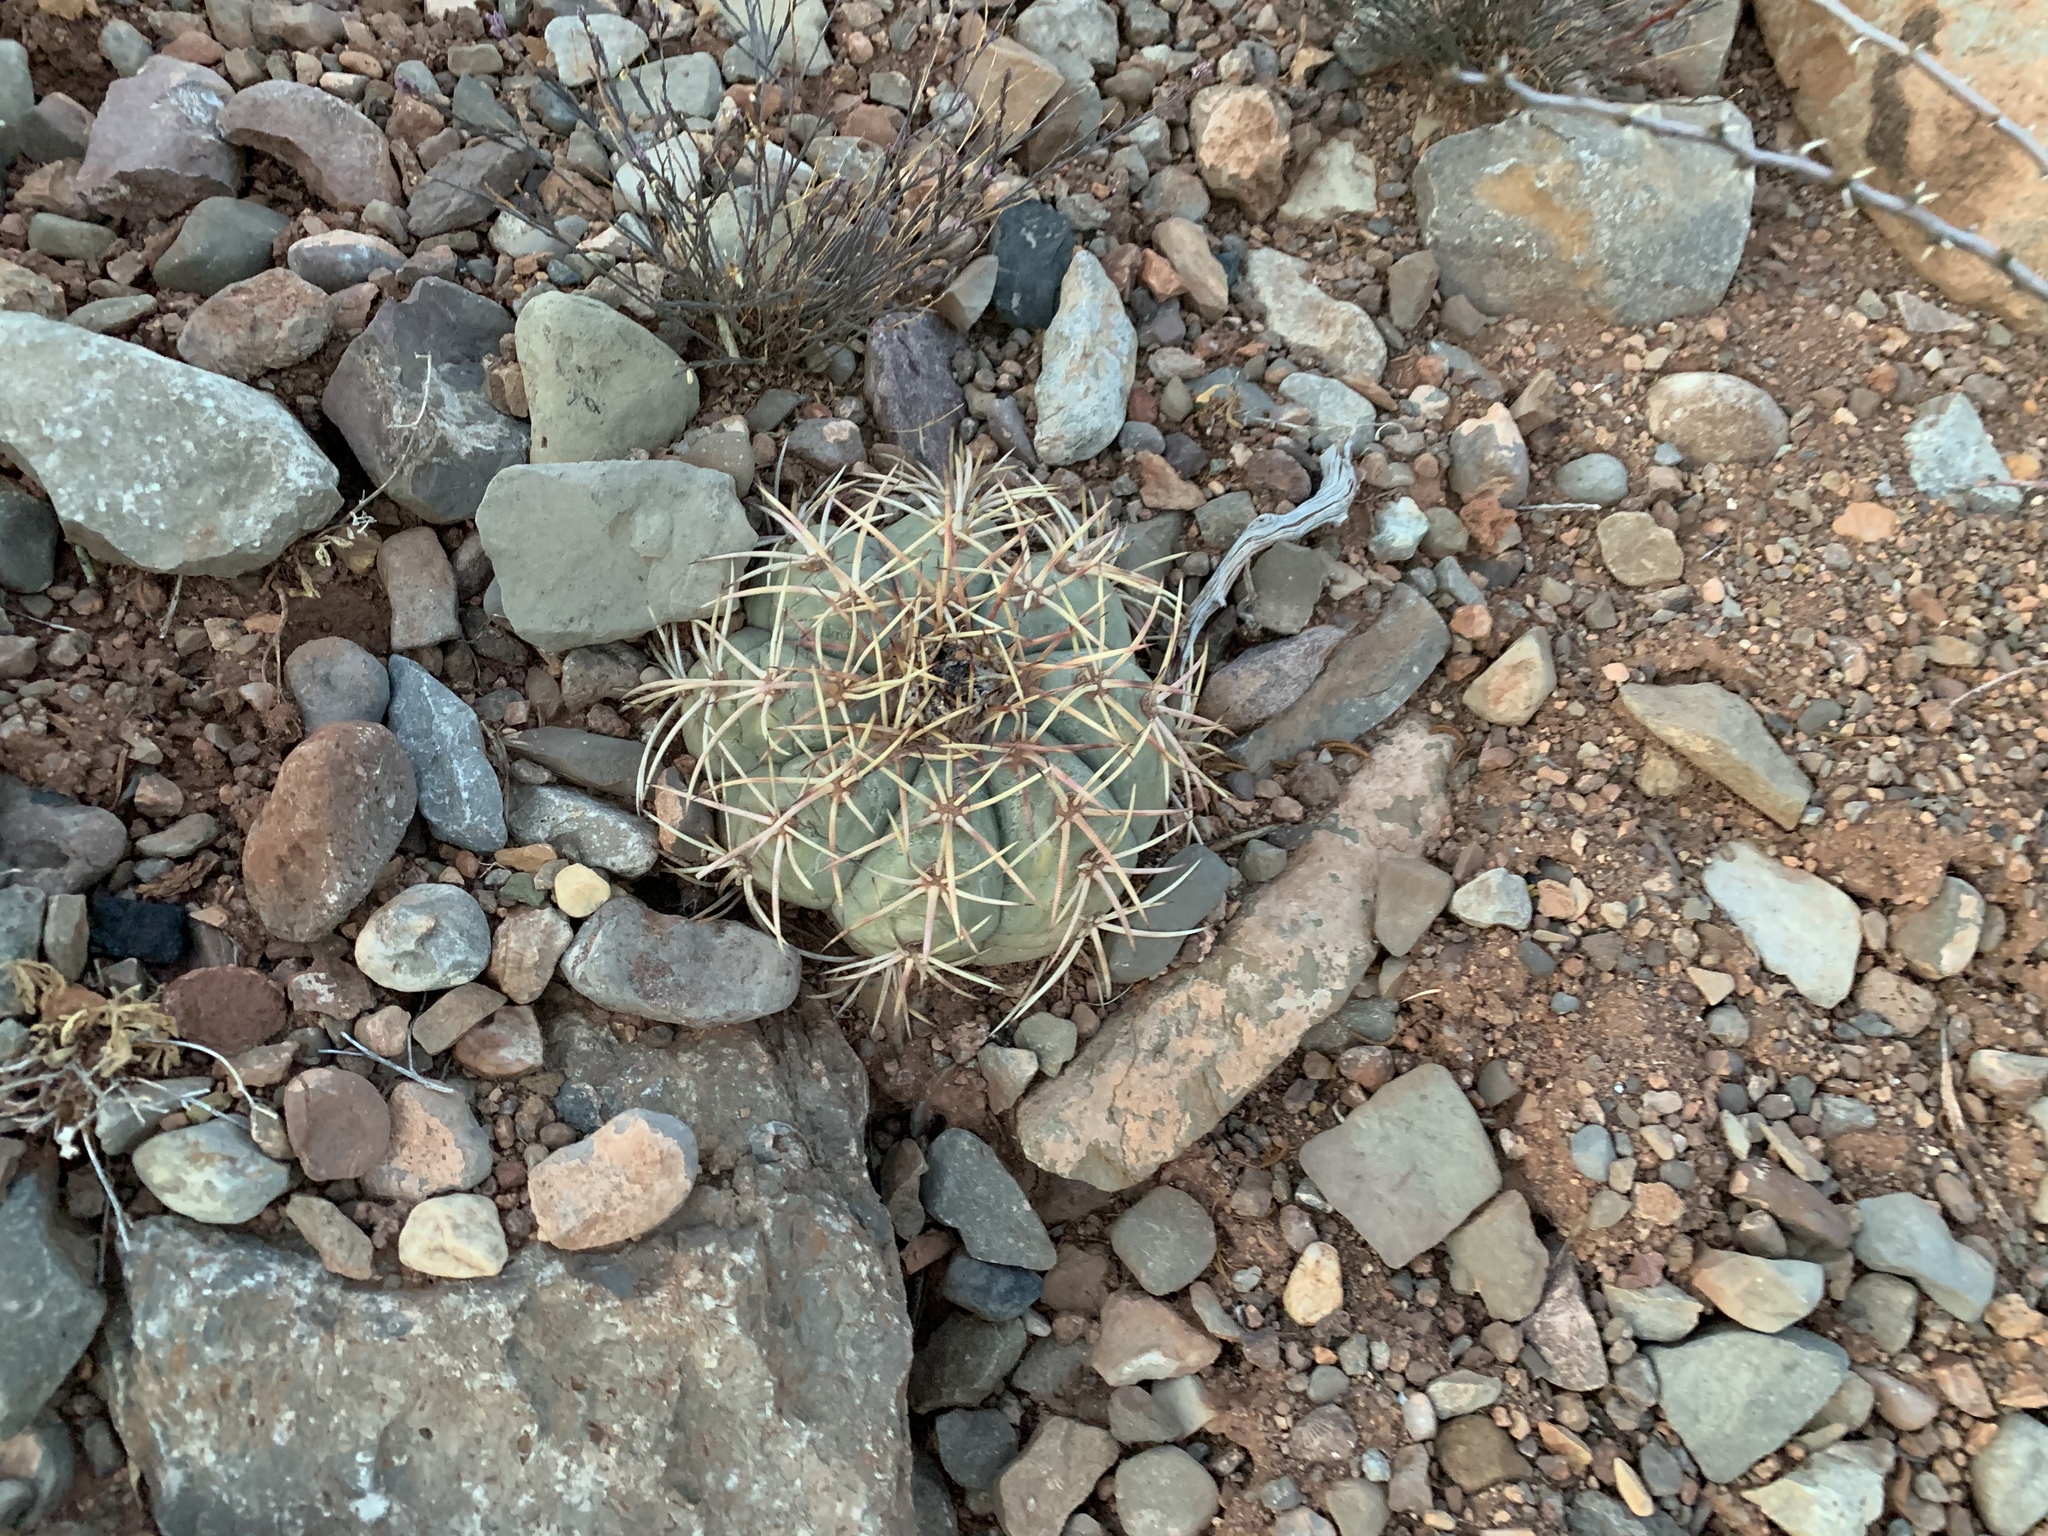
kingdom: Plantae
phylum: Tracheophyta
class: Magnoliopsida
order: Caryophyllales
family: Cactaceae
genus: Echinocactus
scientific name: Echinocactus horizonthalonius
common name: Devilshead
